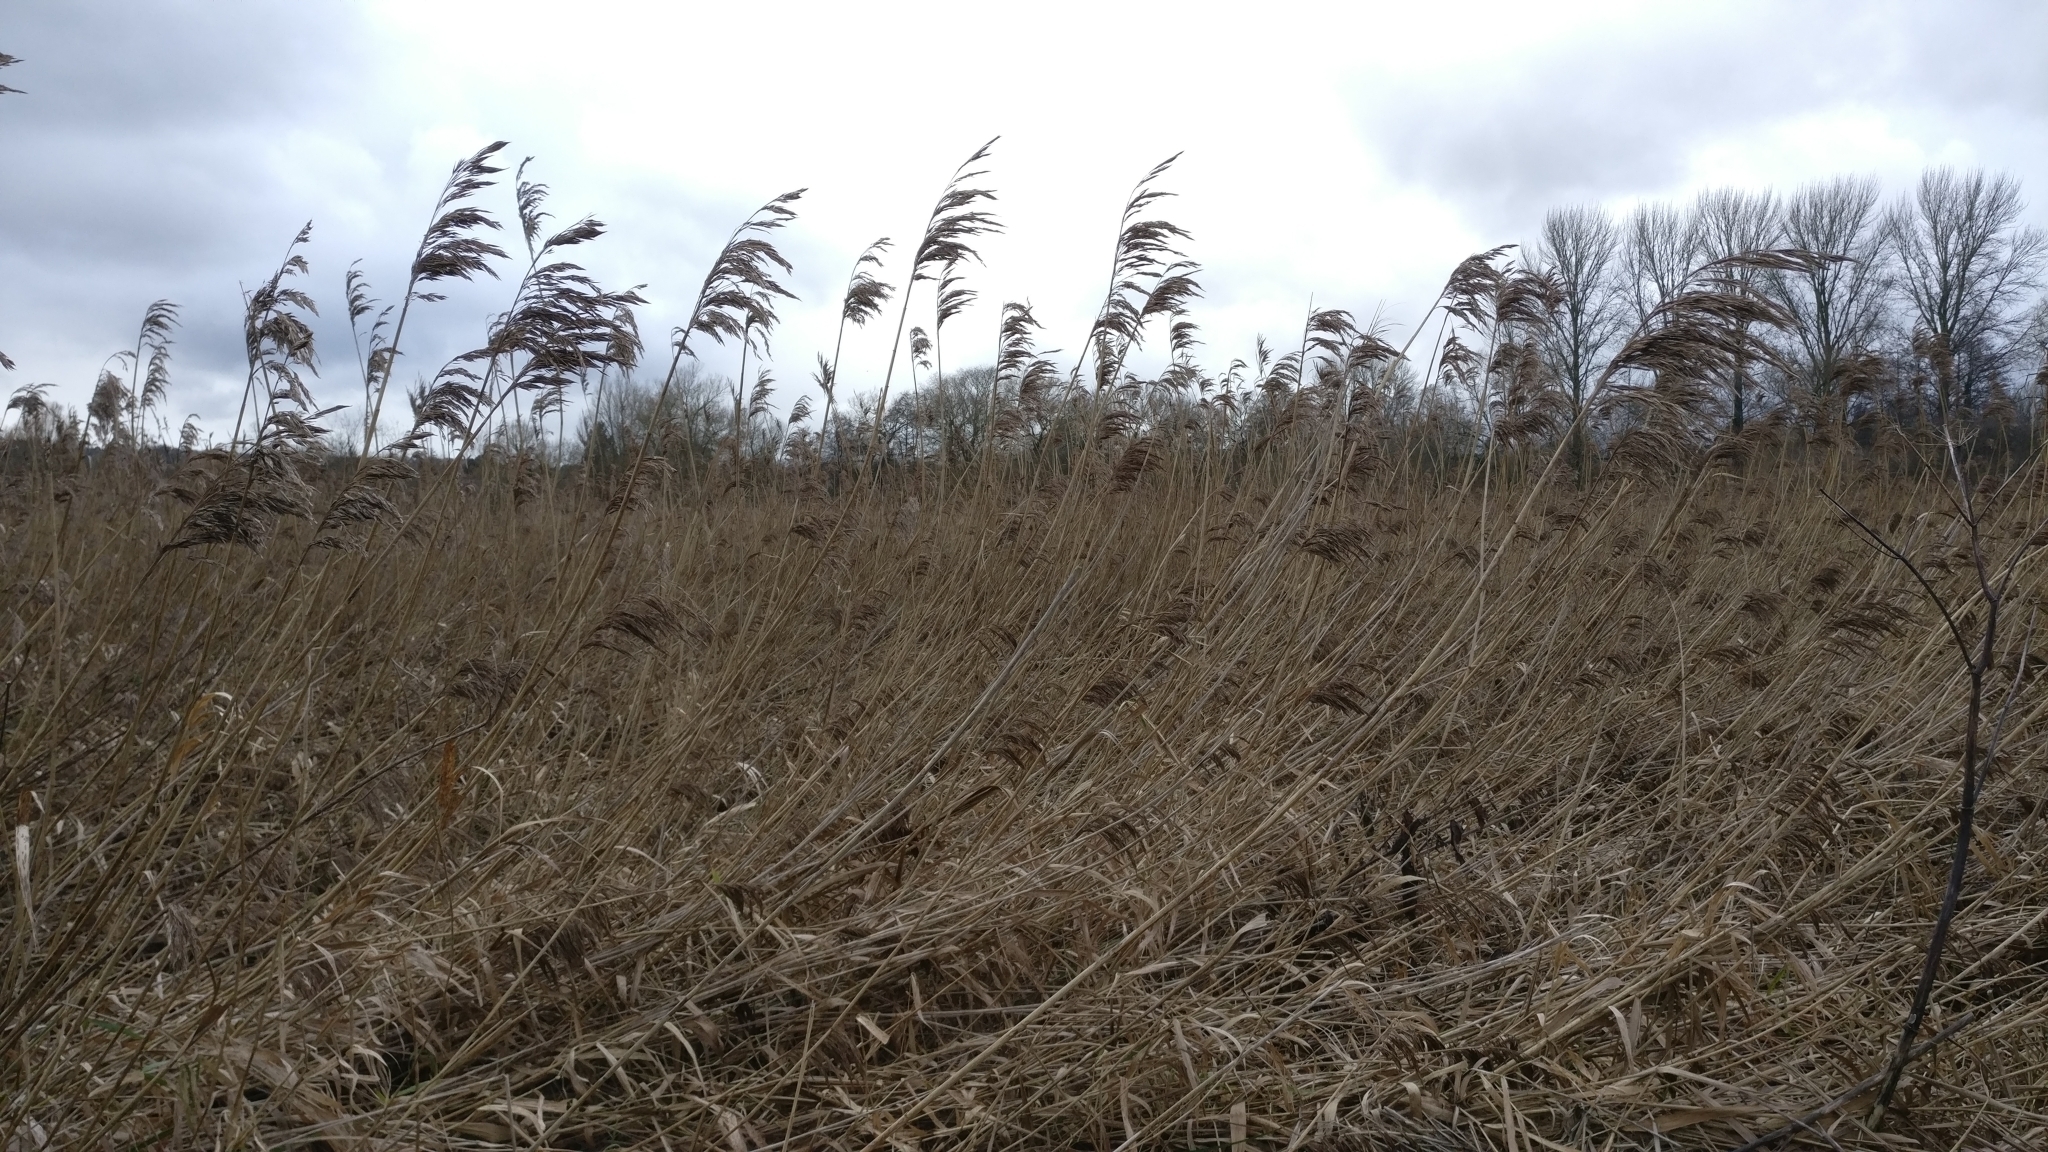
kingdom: Plantae
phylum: Tracheophyta
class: Liliopsida
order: Poales
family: Poaceae
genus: Phragmites
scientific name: Phragmites australis
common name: Common reed
